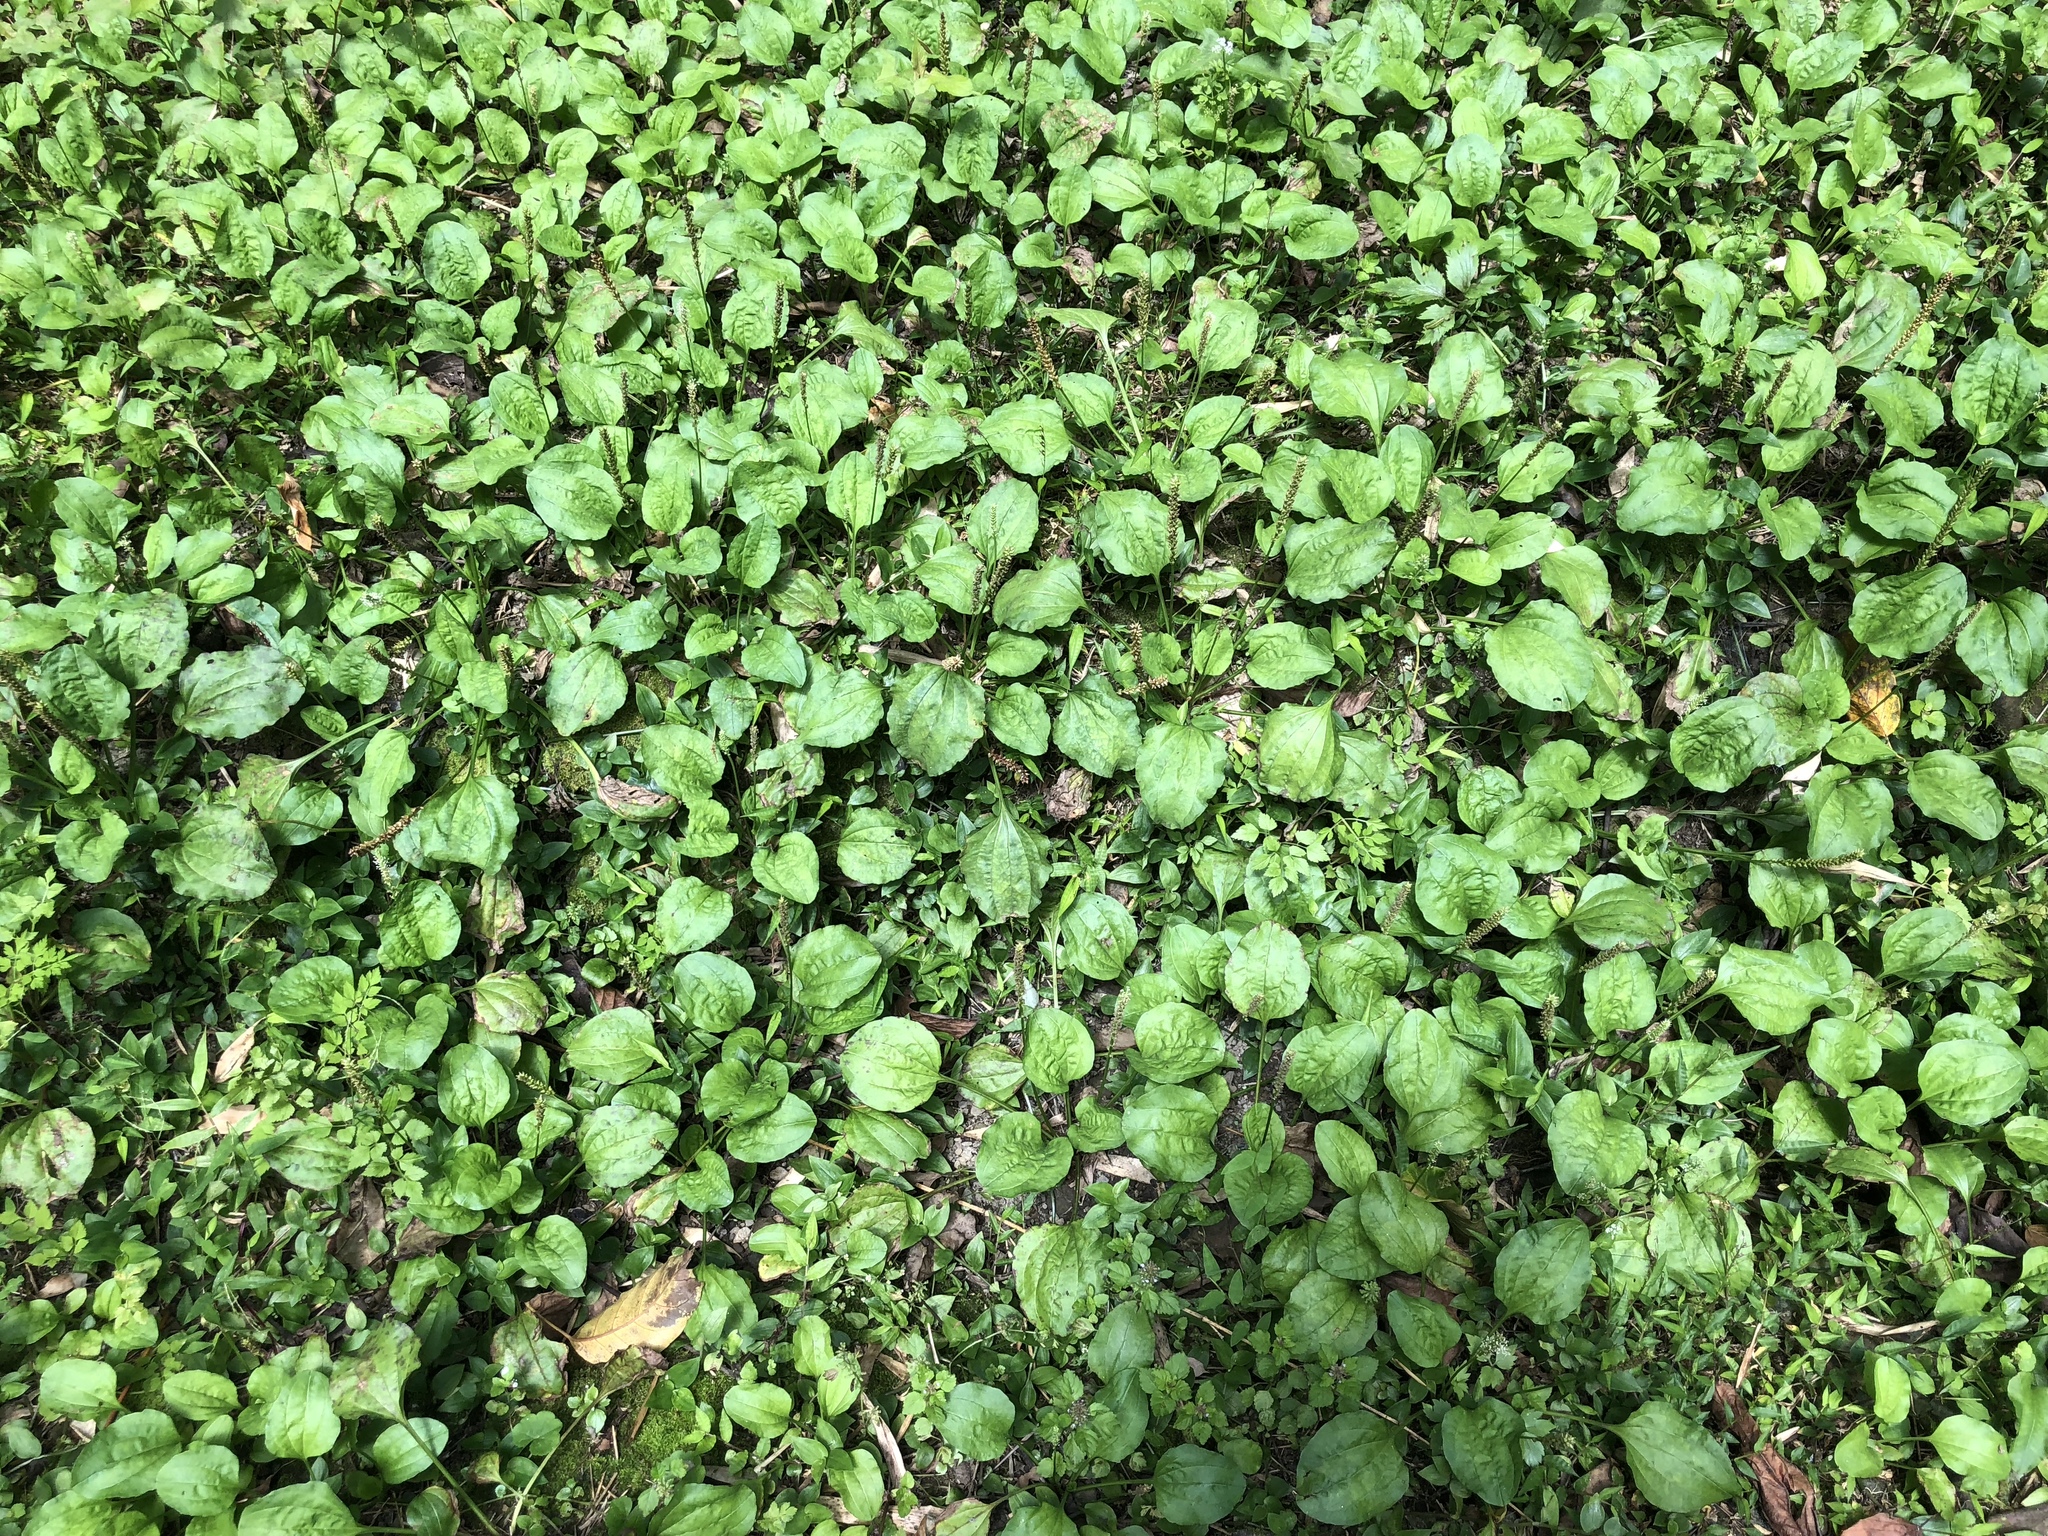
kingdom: Plantae
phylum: Tracheophyta
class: Magnoliopsida
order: Lamiales
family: Plantaginaceae
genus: Plantago
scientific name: Plantago major
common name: Common plantain
